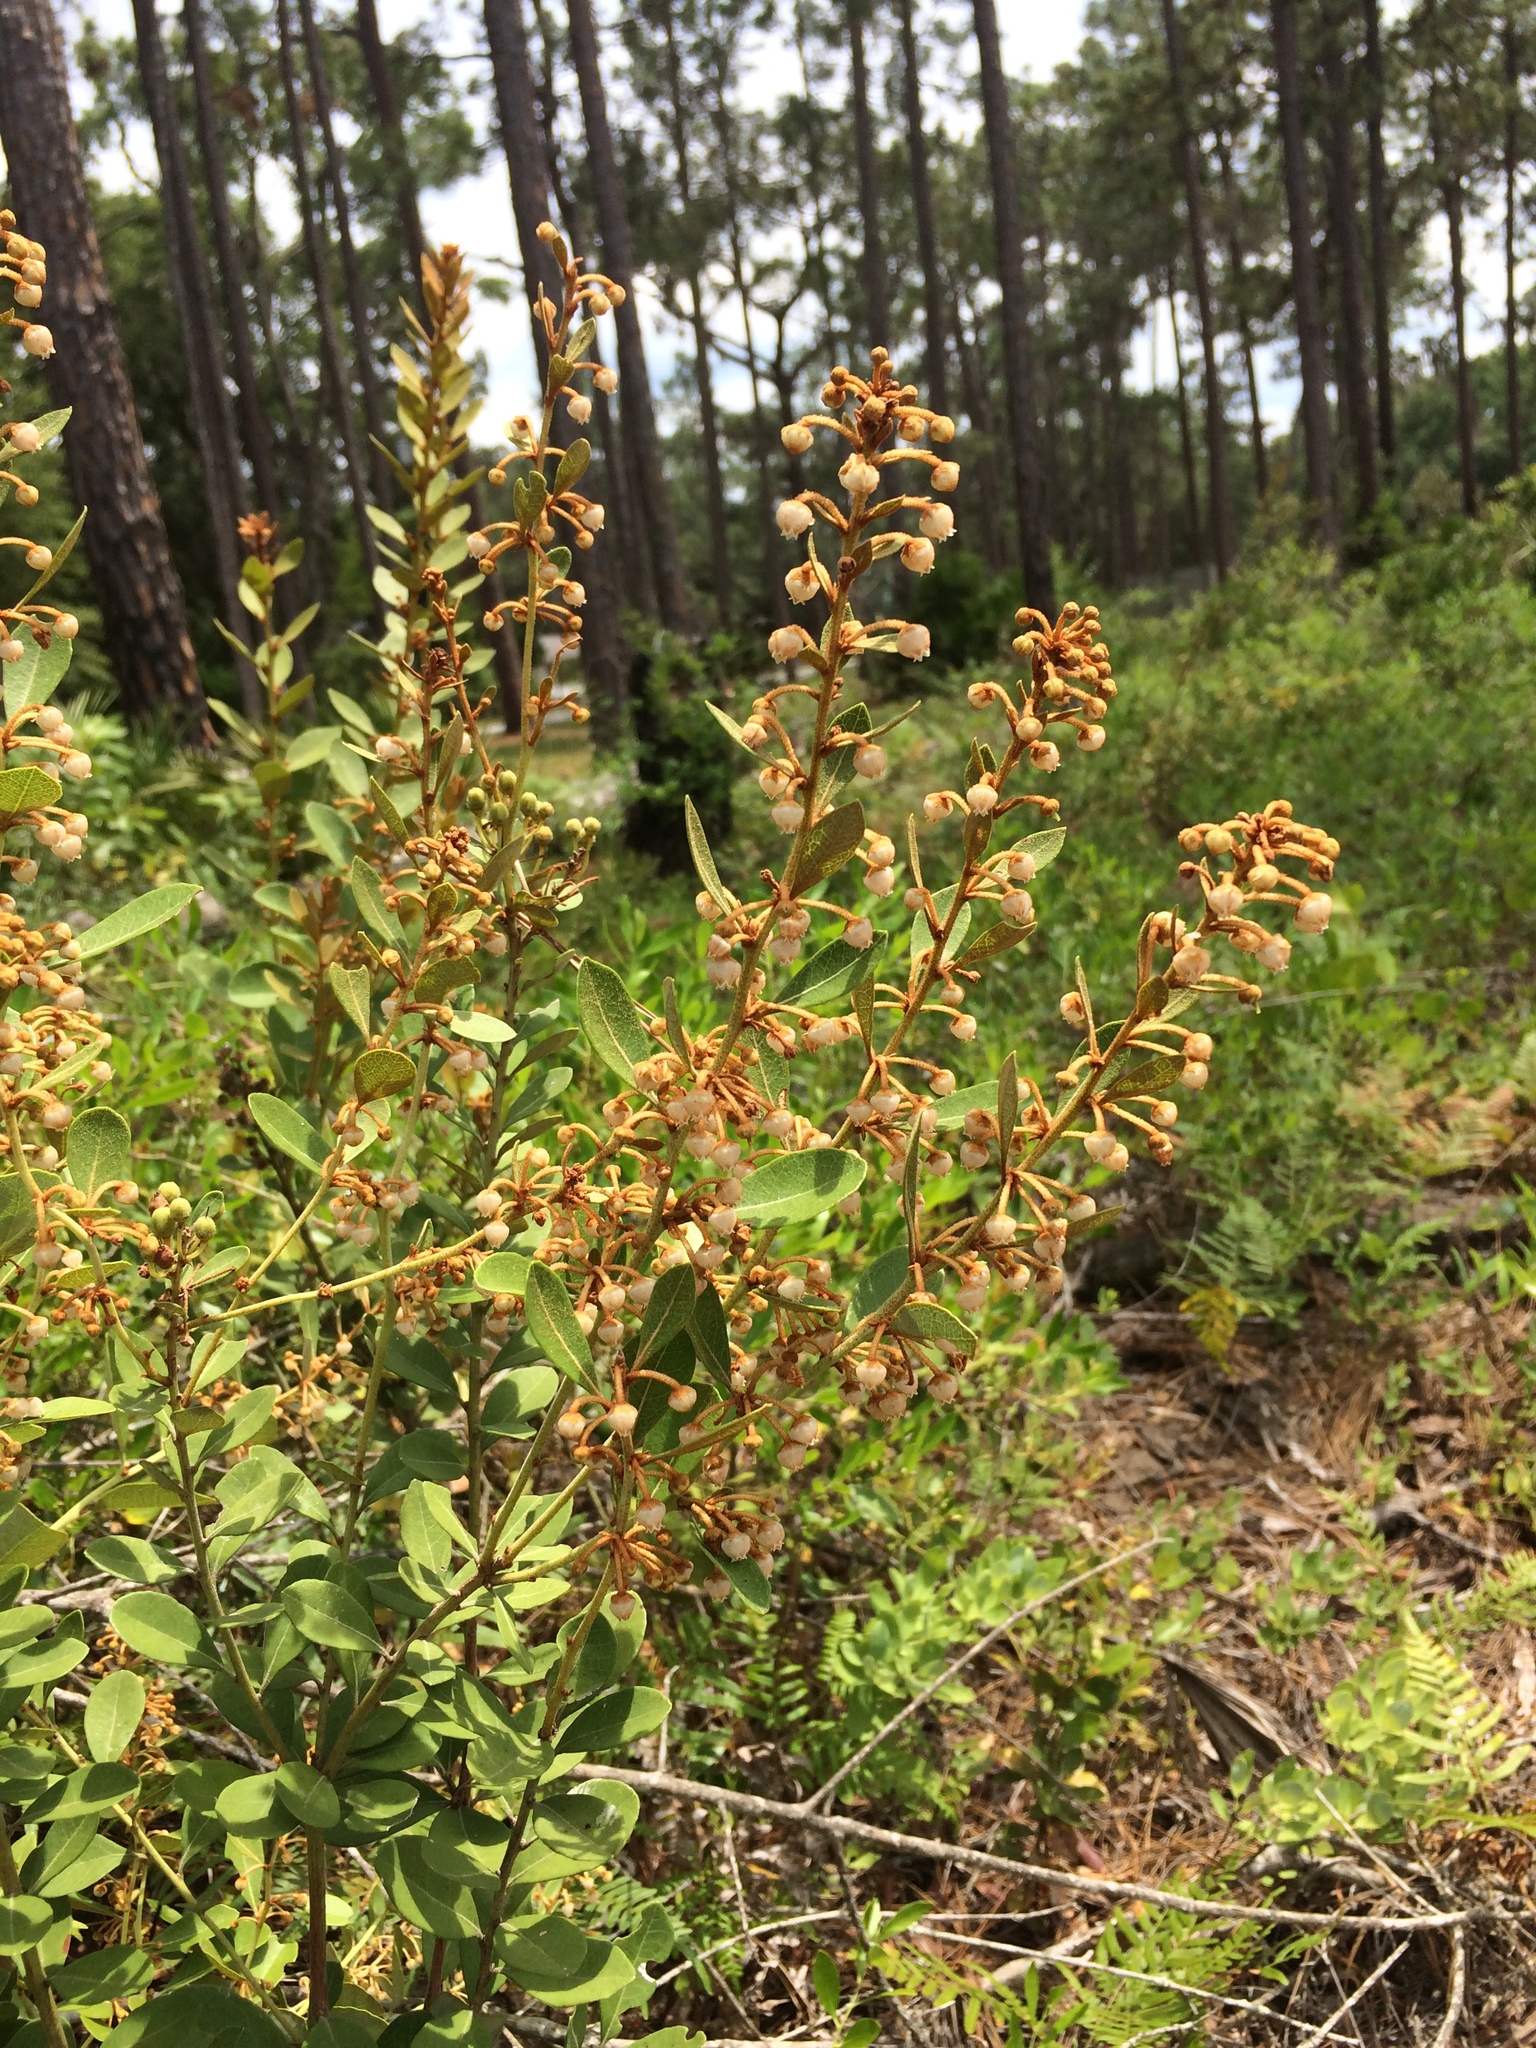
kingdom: Plantae
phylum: Tracheophyta
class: Magnoliopsida
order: Ericales
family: Ericaceae
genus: Lyonia
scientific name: Lyonia fruticosa
